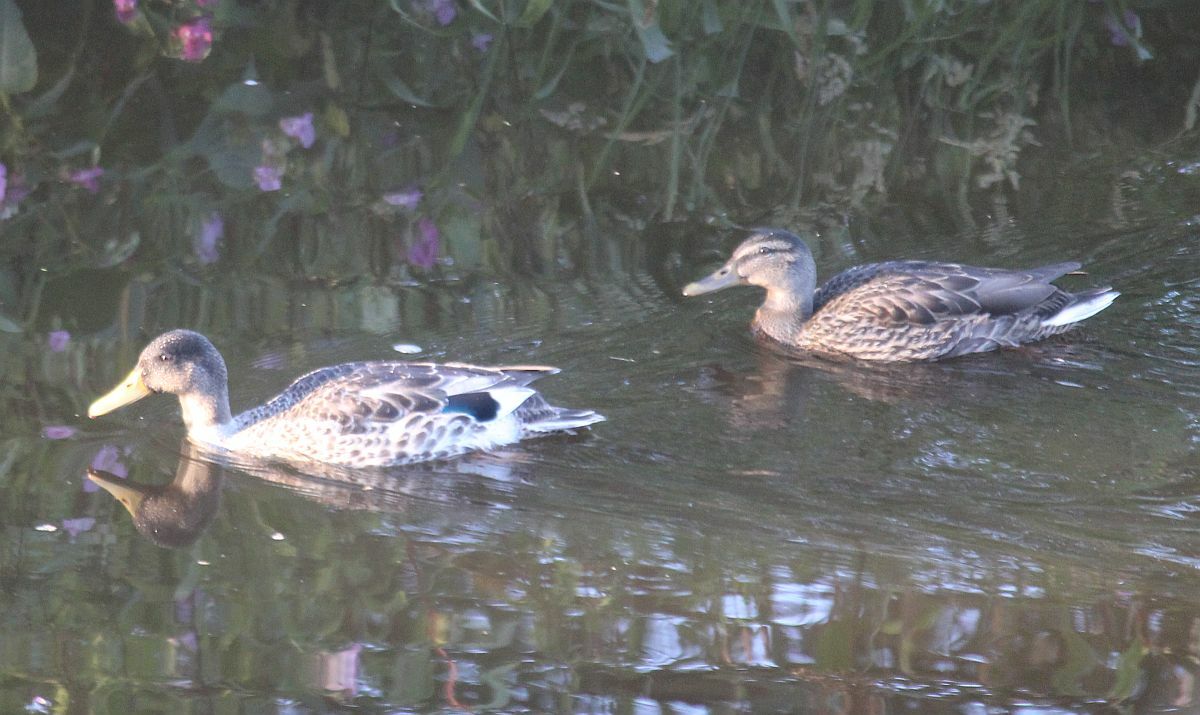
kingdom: Animalia
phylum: Chordata
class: Aves
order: Anseriformes
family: Anatidae
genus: Anas
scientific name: Anas platyrhynchos
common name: Mallard
